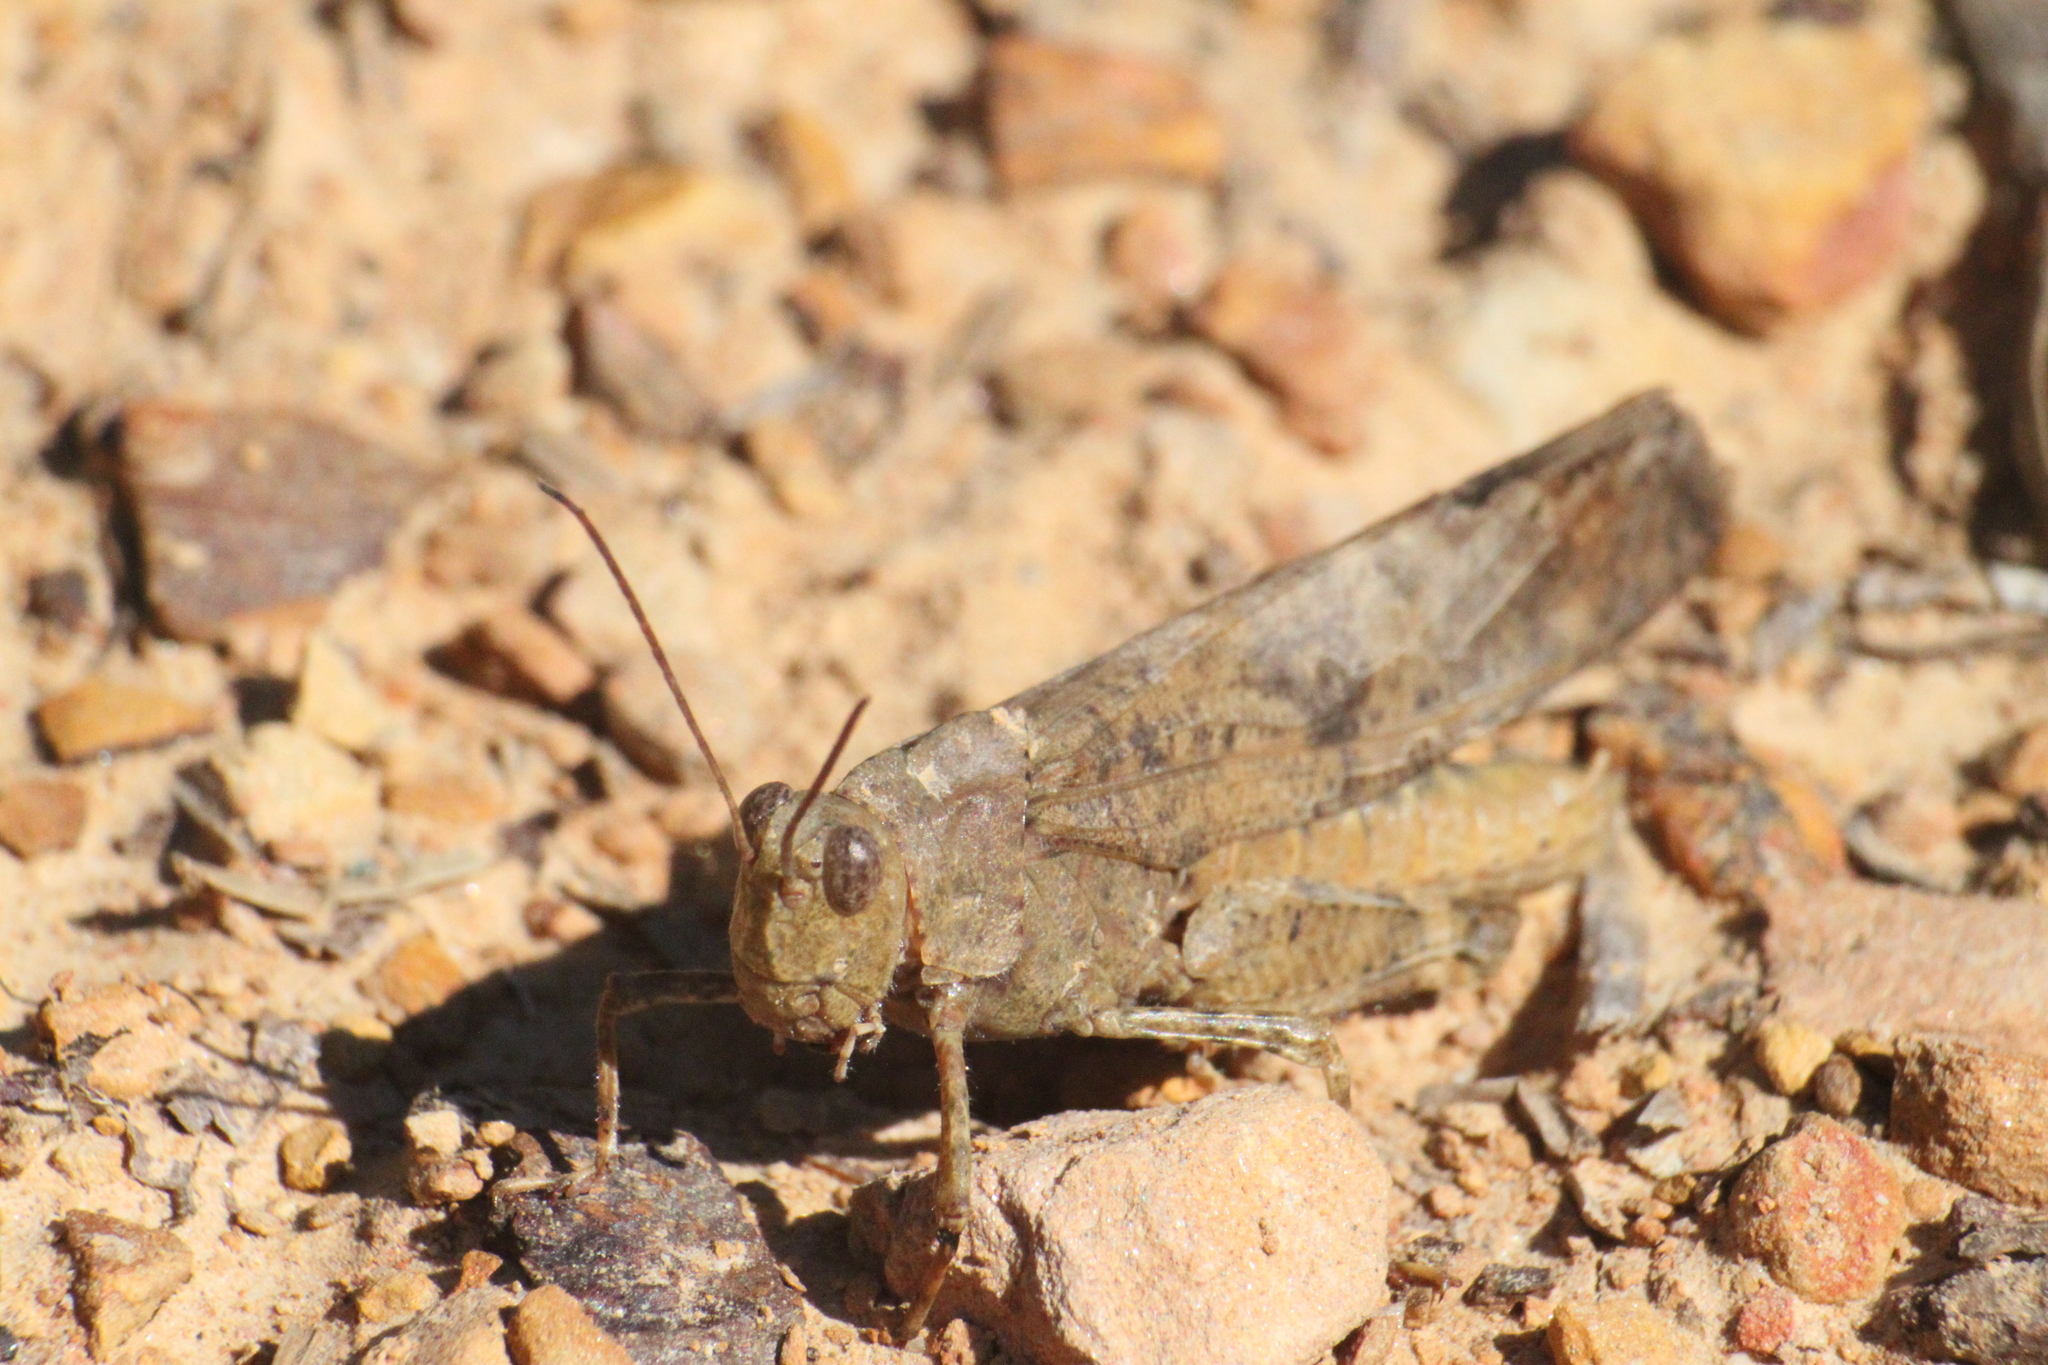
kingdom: Animalia
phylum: Arthropoda
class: Insecta
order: Orthoptera
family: Acrididae
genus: Dissosteira
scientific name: Dissosteira carolina
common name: Carolina grasshopper
